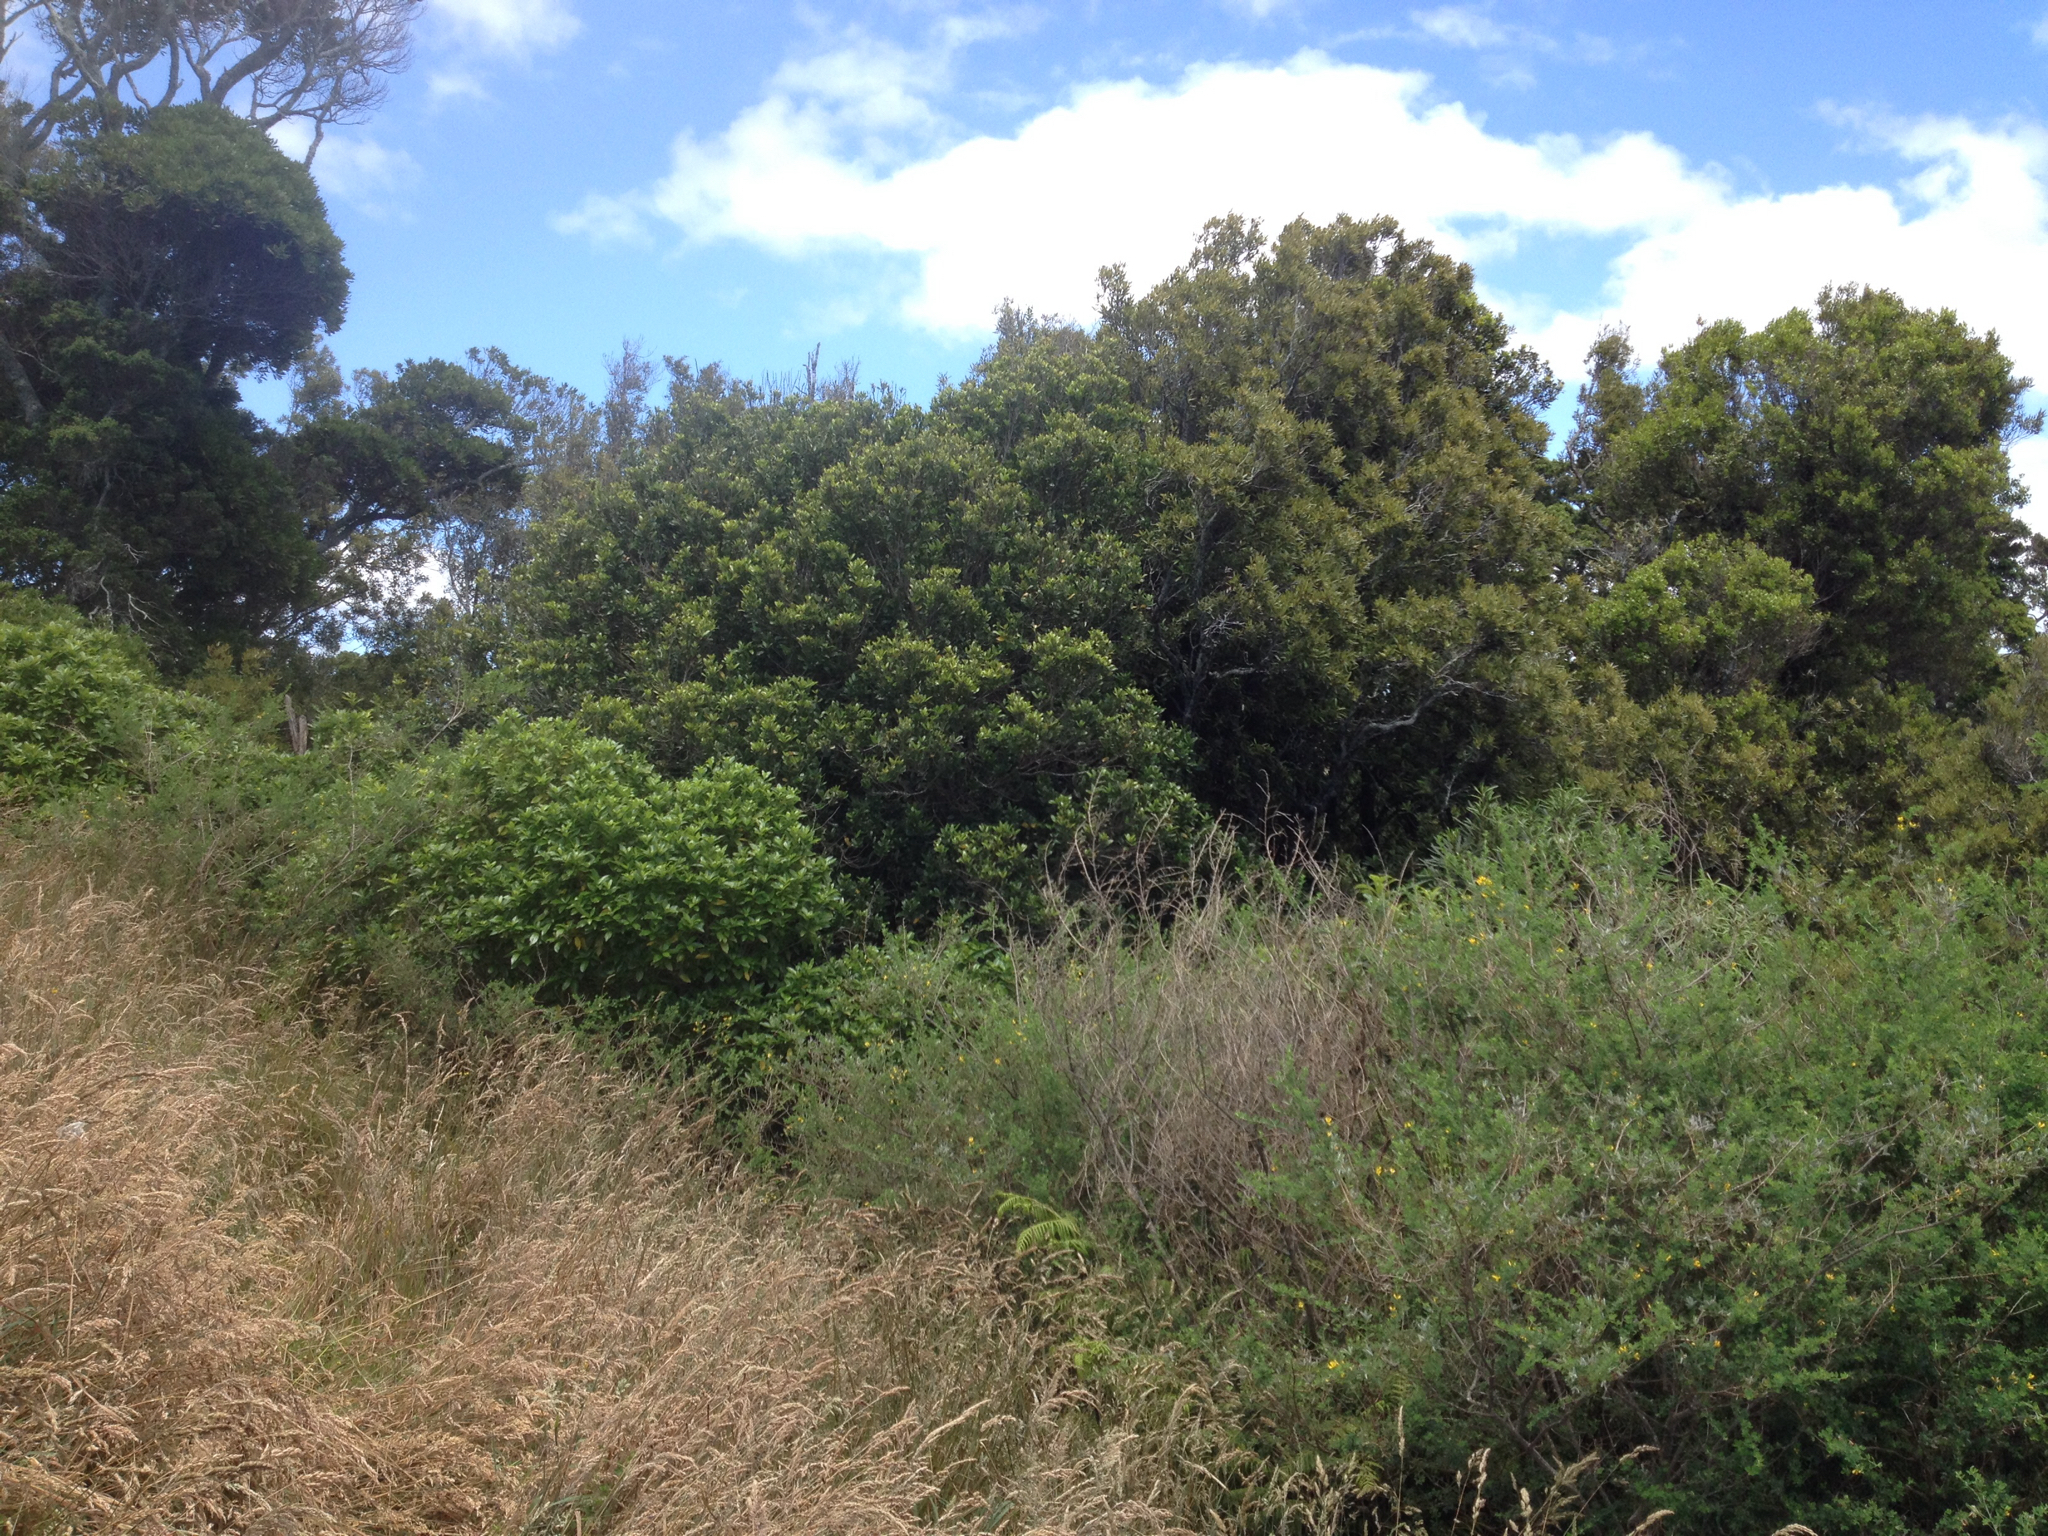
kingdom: Plantae
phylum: Tracheophyta
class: Magnoliopsida
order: Laurales
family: Monimiaceae
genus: Hedycarya
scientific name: Hedycarya arborea
